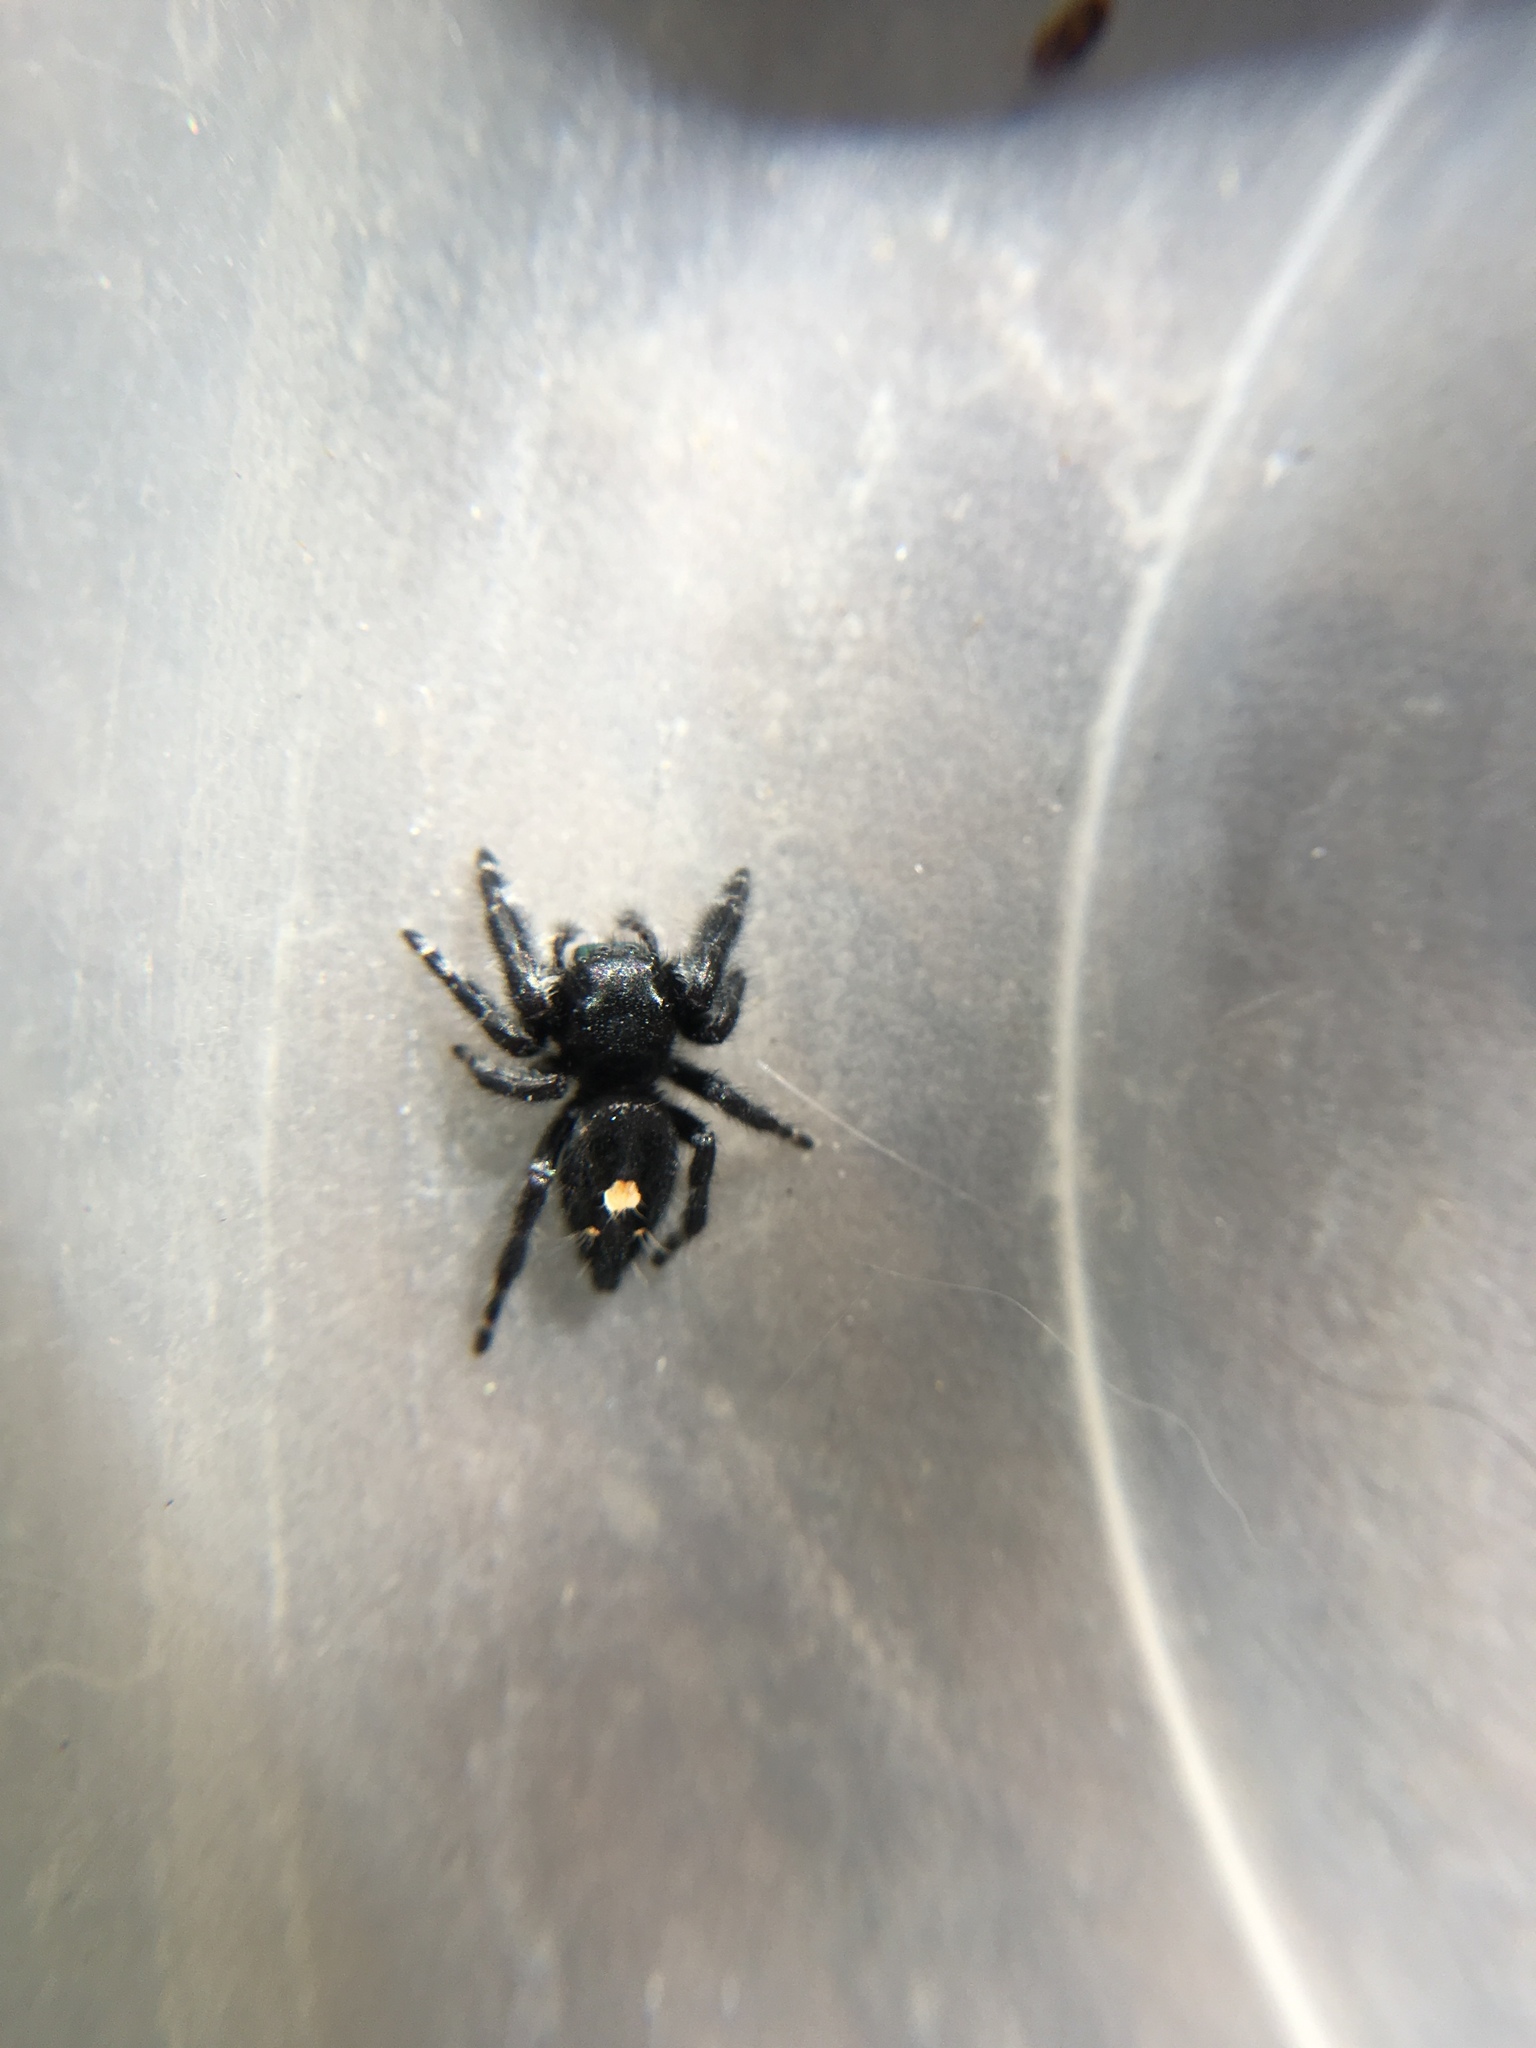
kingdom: Animalia
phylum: Arthropoda
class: Arachnida
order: Araneae
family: Salticidae
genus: Phidippus
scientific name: Phidippus audax
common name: Bold jumper
